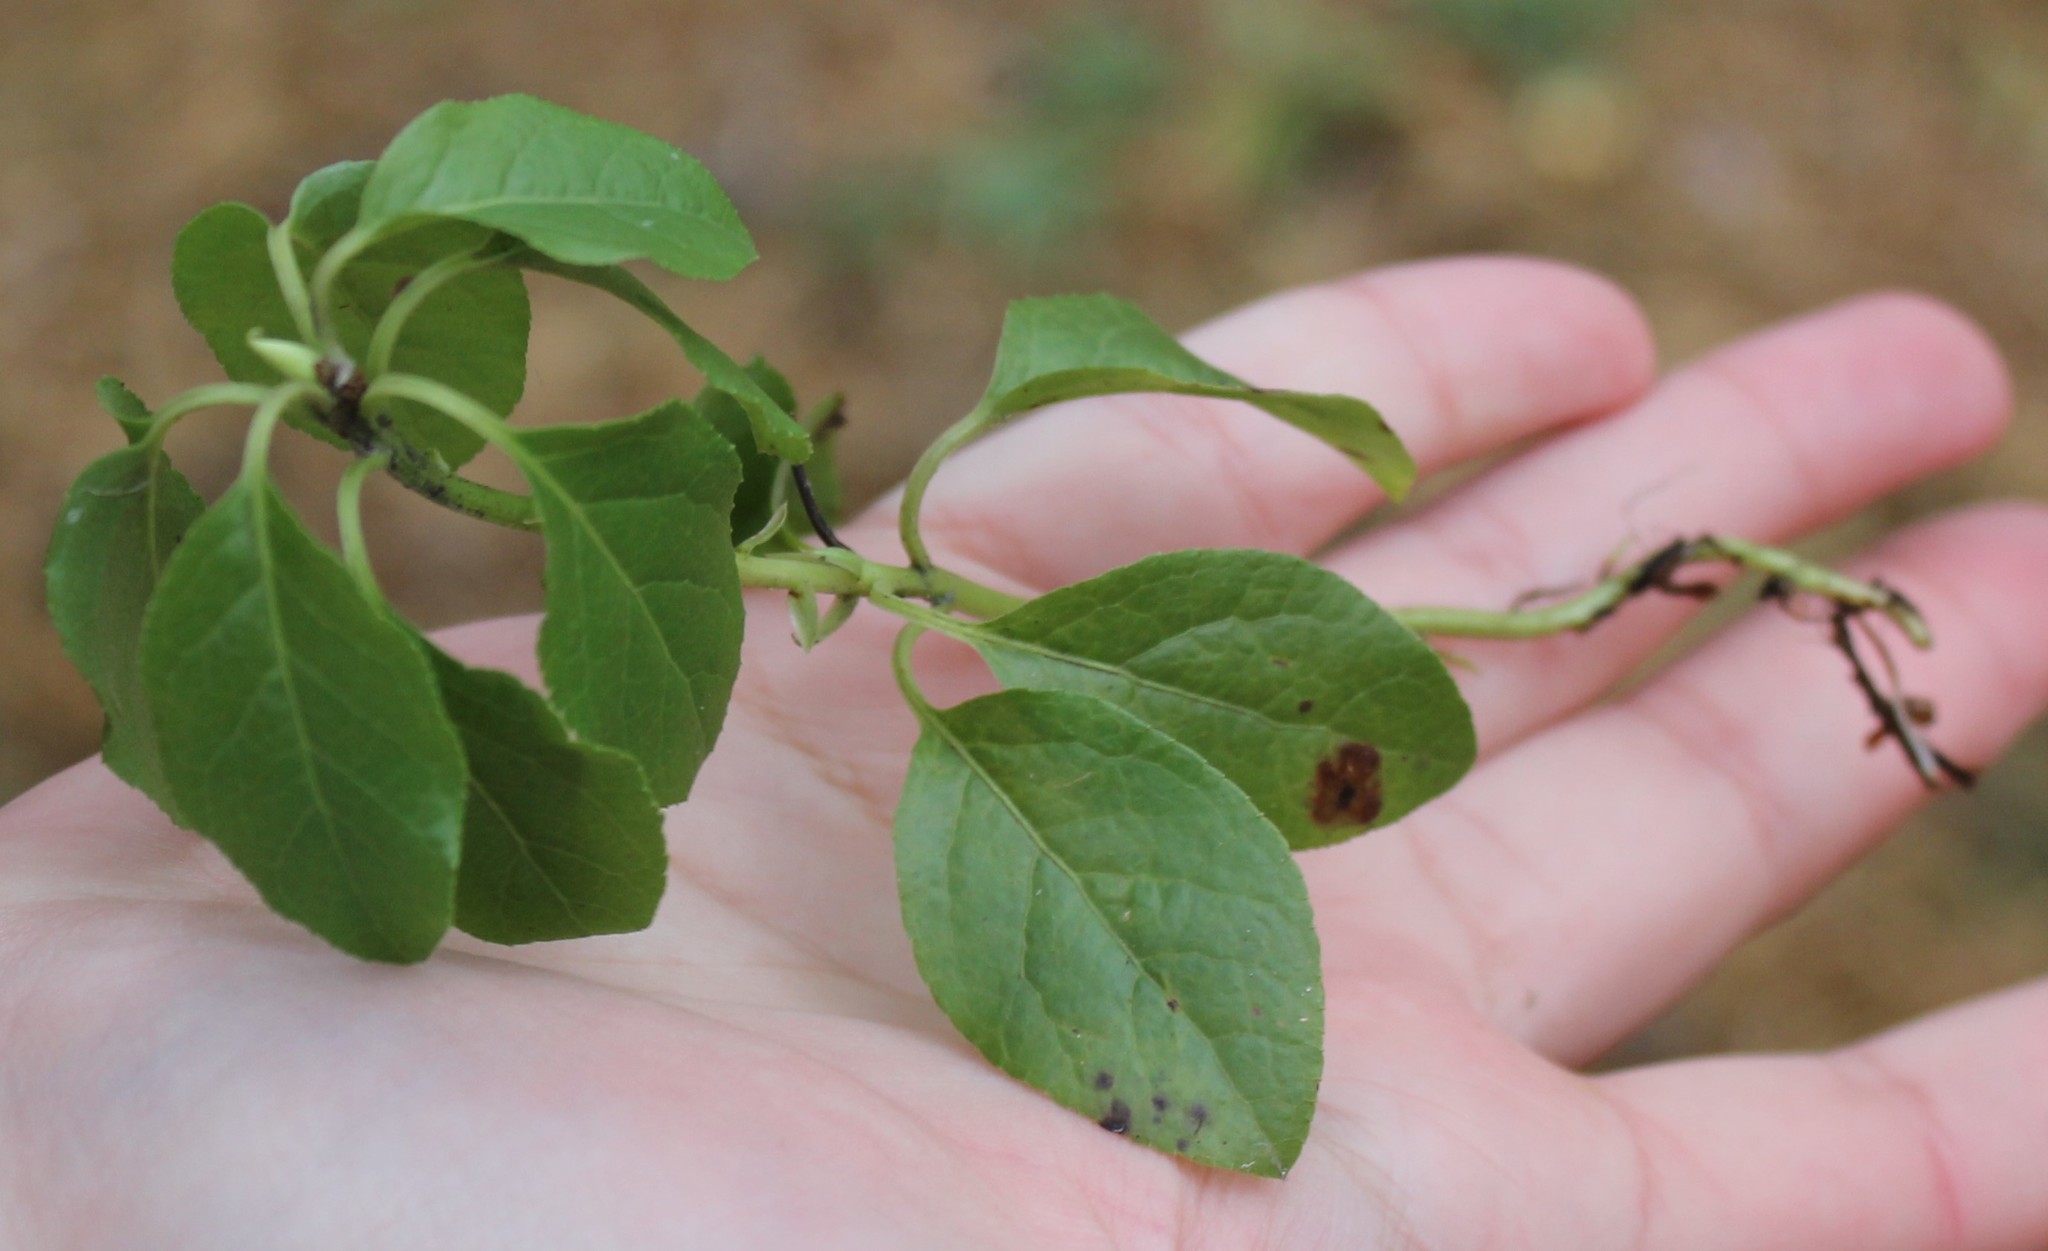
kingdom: Plantae
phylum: Tracheophyta
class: Magnoliopsida
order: Ericales
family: Ericaceae
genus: Orthilia
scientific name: Orthilia secunda
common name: One-sided orthilia
